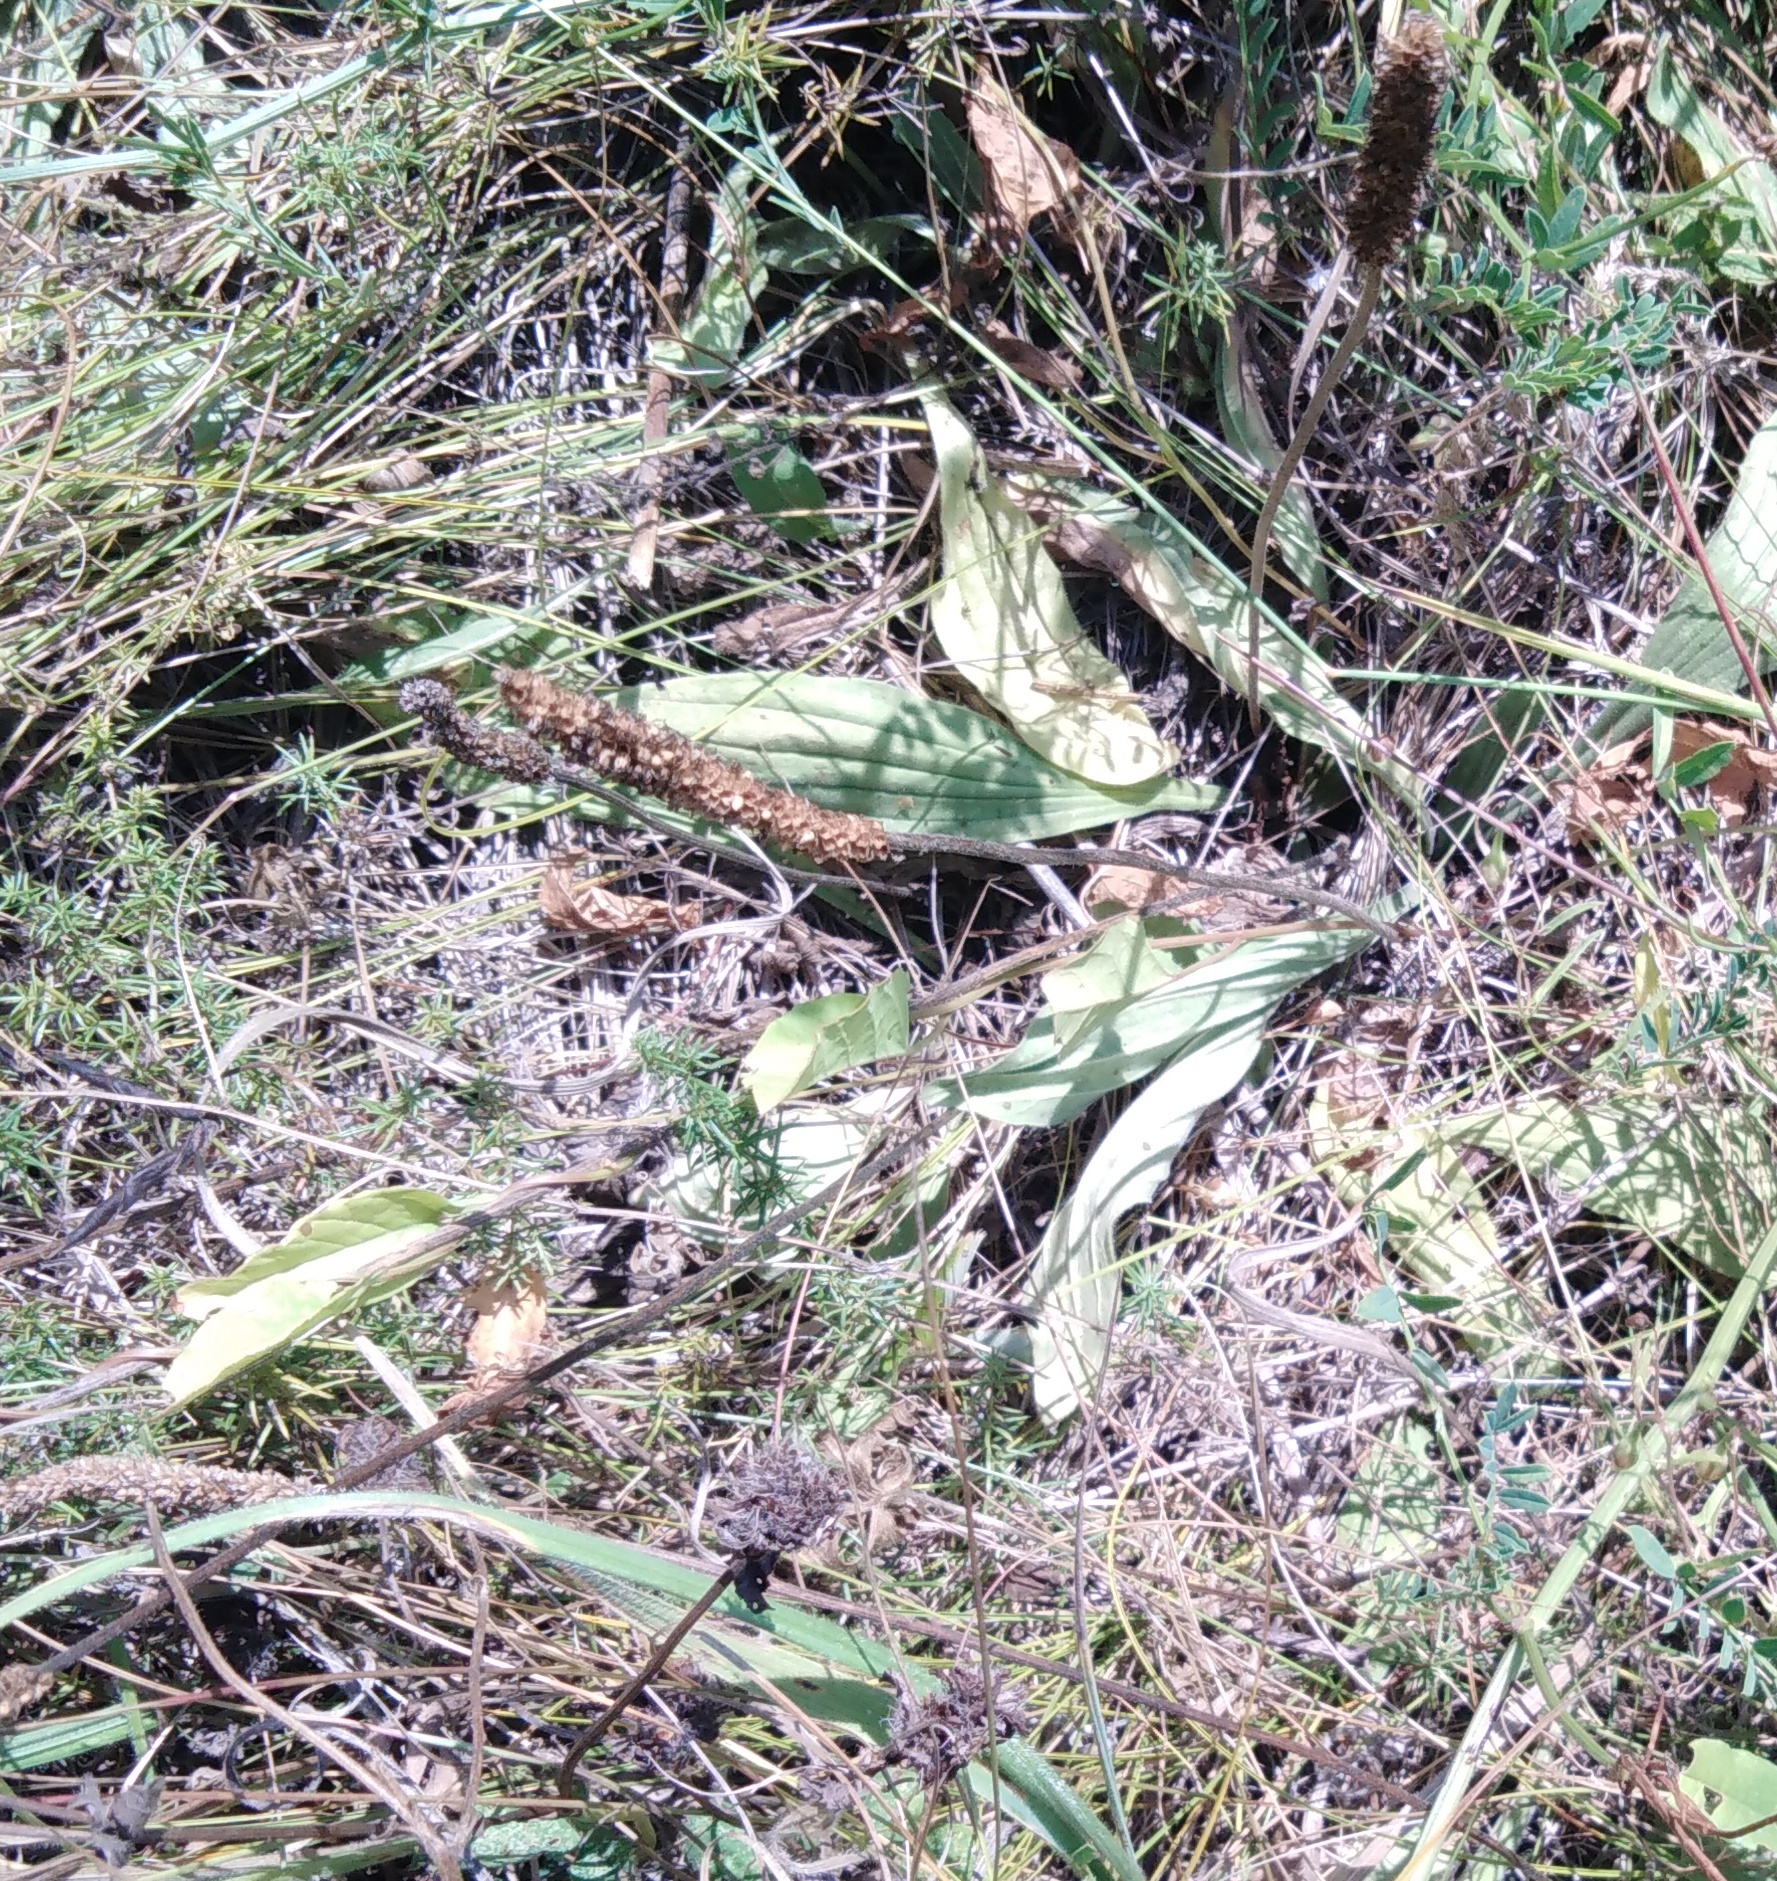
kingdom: Plantae
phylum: Tracheophyta
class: Magnoliopsida
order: Lamiales
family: Plantaginaceae
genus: Plantago
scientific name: Plantago media
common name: Hoary plantain
